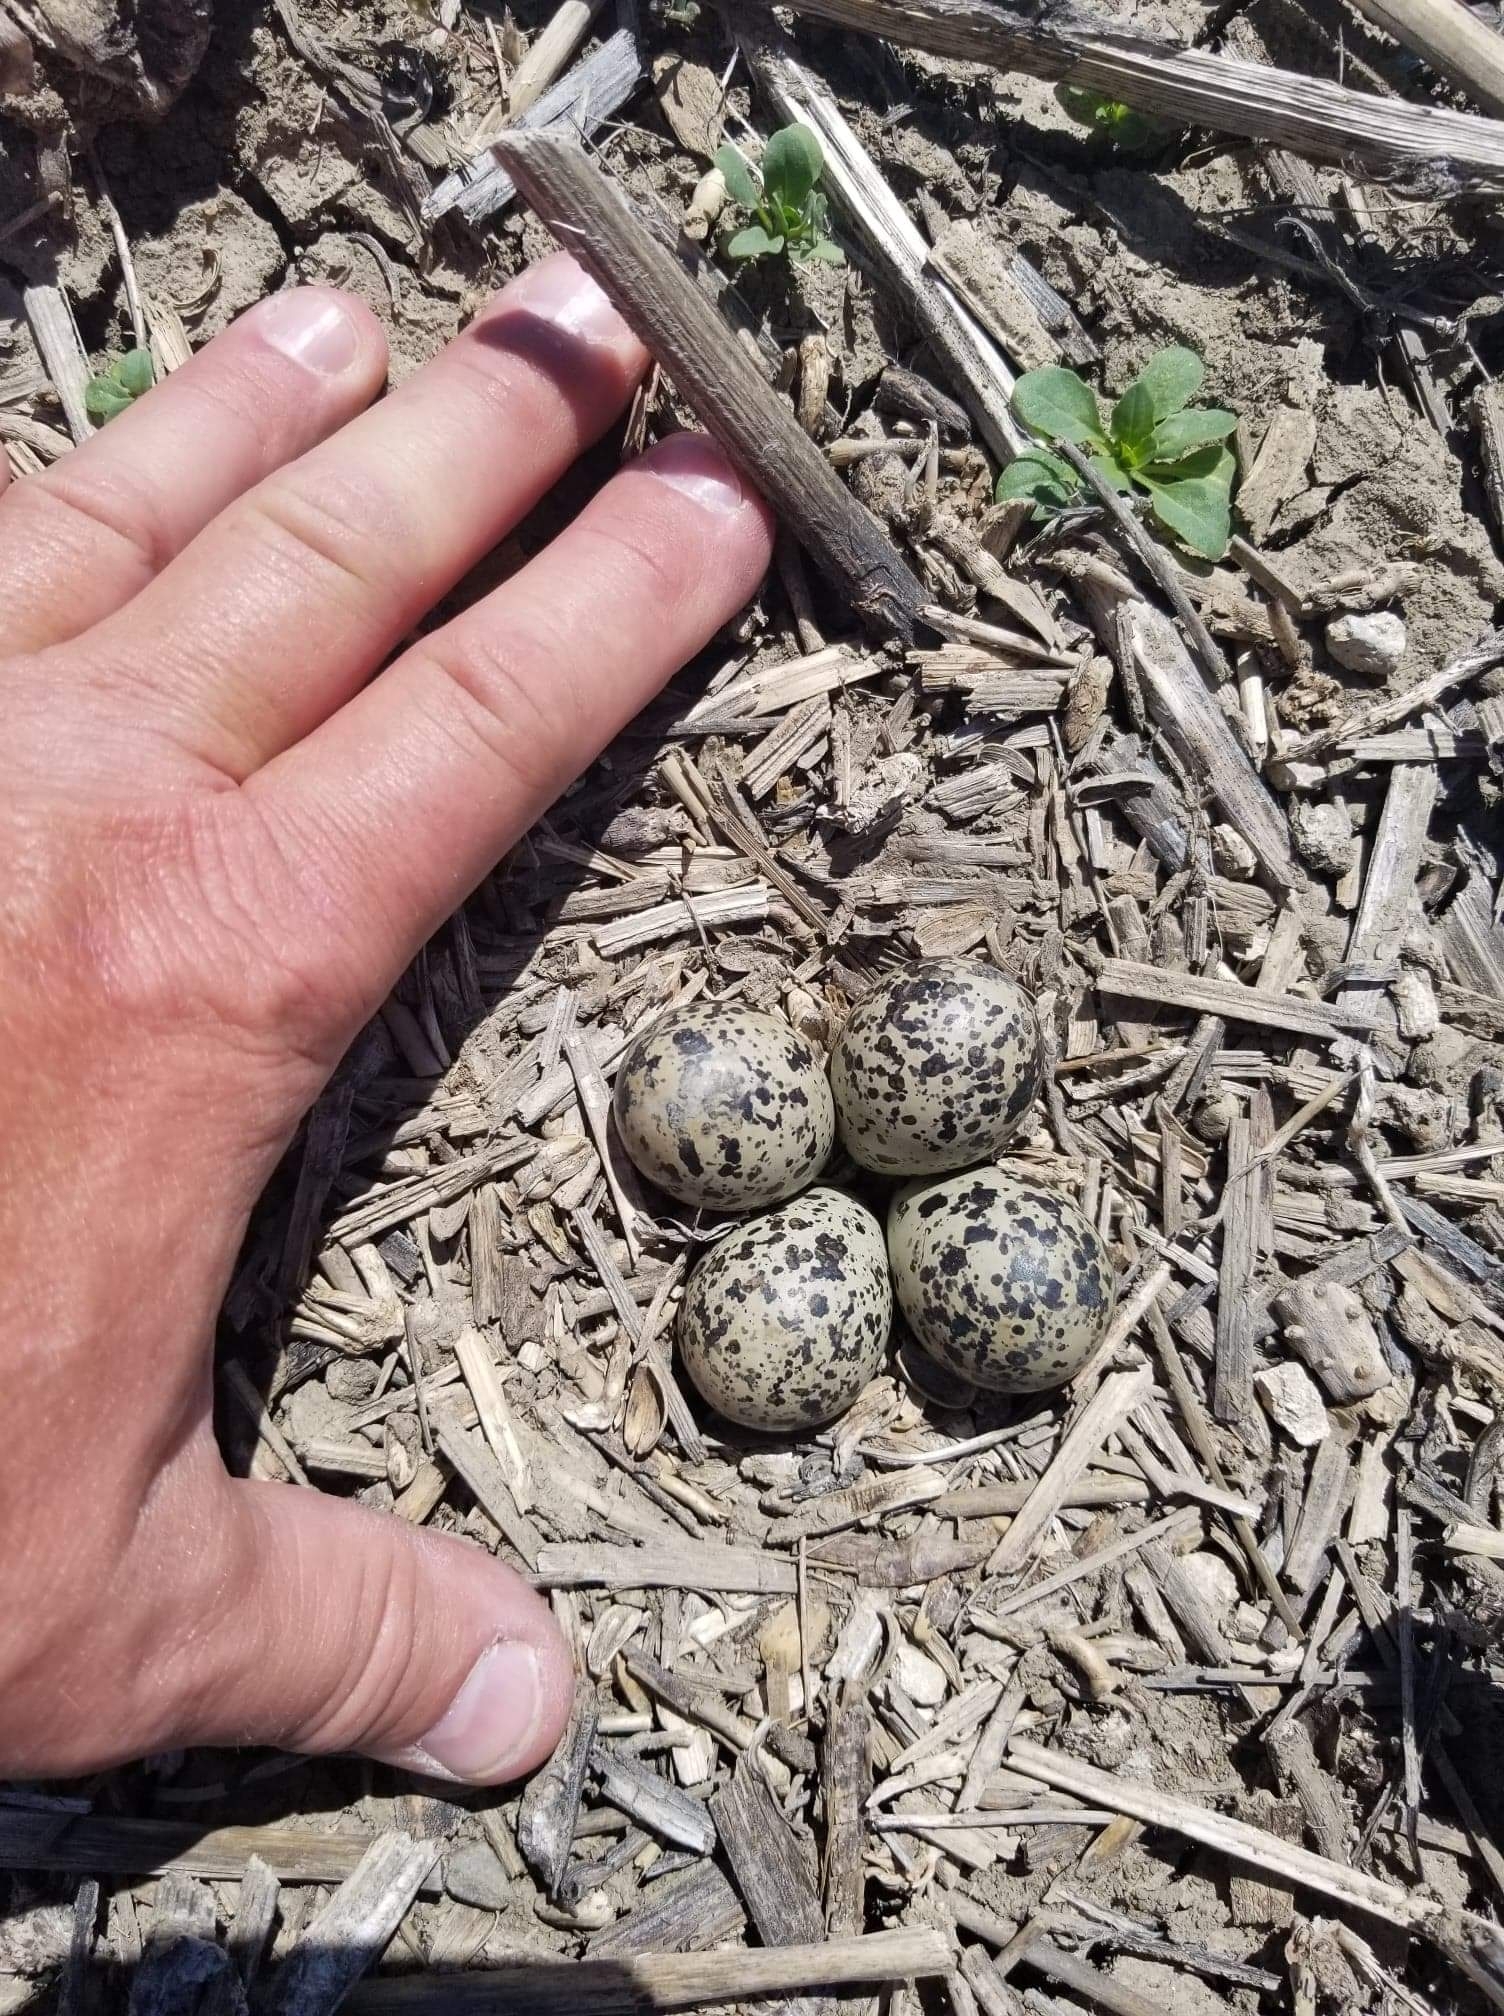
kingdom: Animalia
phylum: Chordata
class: Aves
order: Charadriiformes
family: Charadriidae
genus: Charadrius
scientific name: Charadrius vociferus
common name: Killdeer
